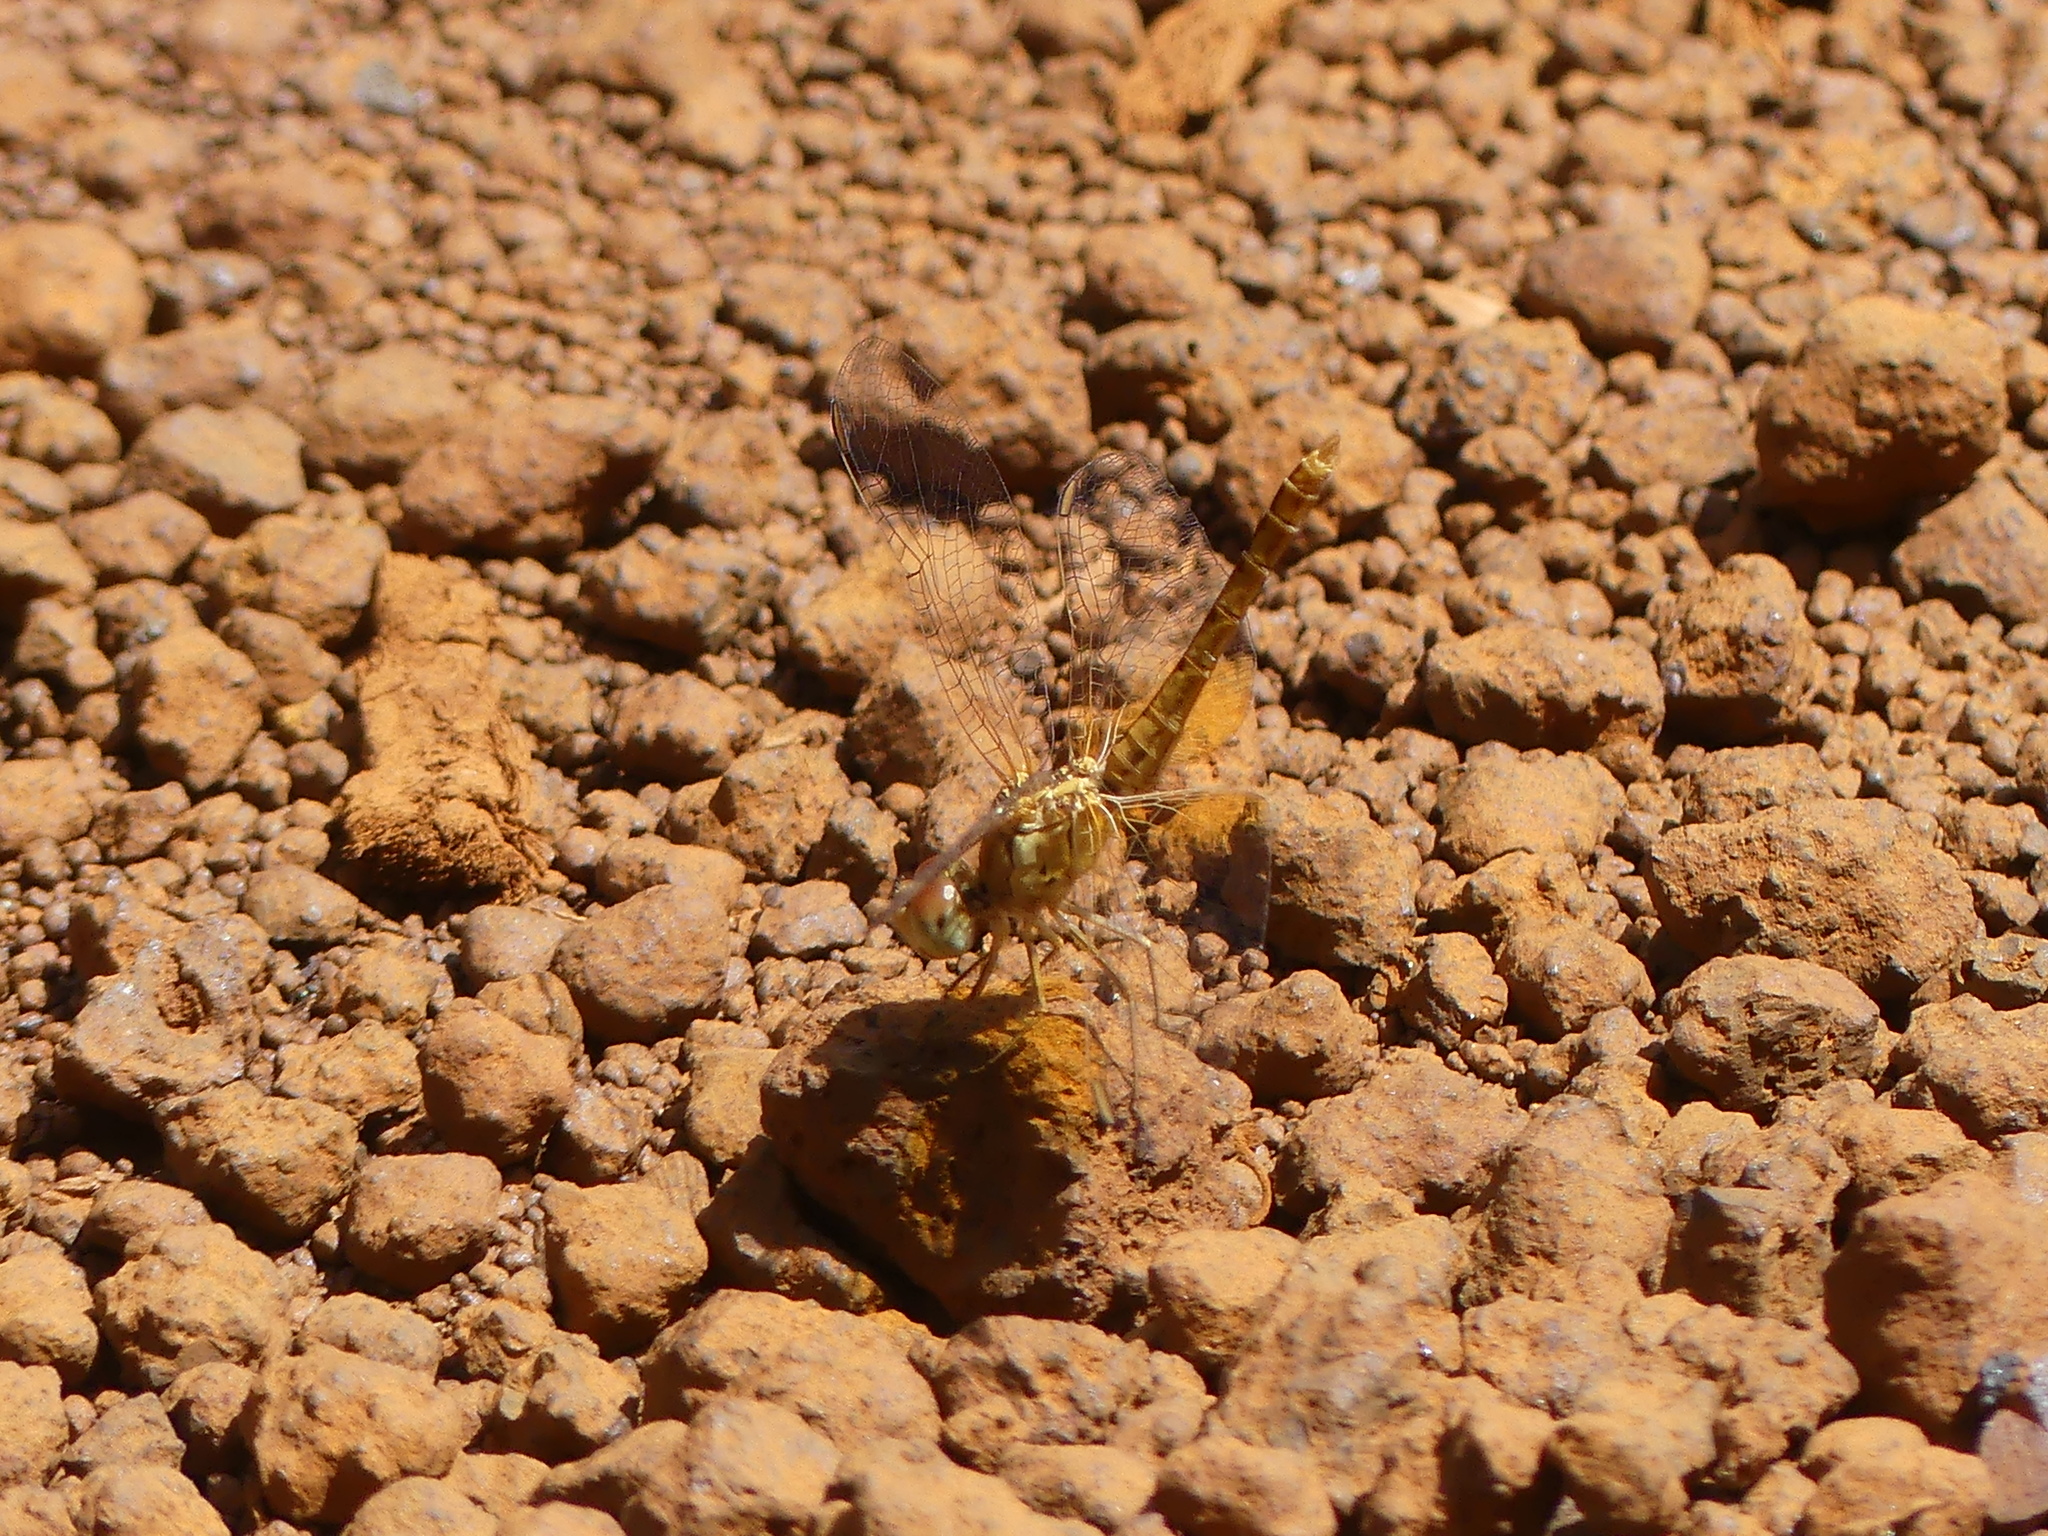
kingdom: Animalia
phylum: Arthropoda
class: Insecta
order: Odonata
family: Libellulidae
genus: Diplacodes
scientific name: Diplacodes haematodes
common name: Scarlet percher
